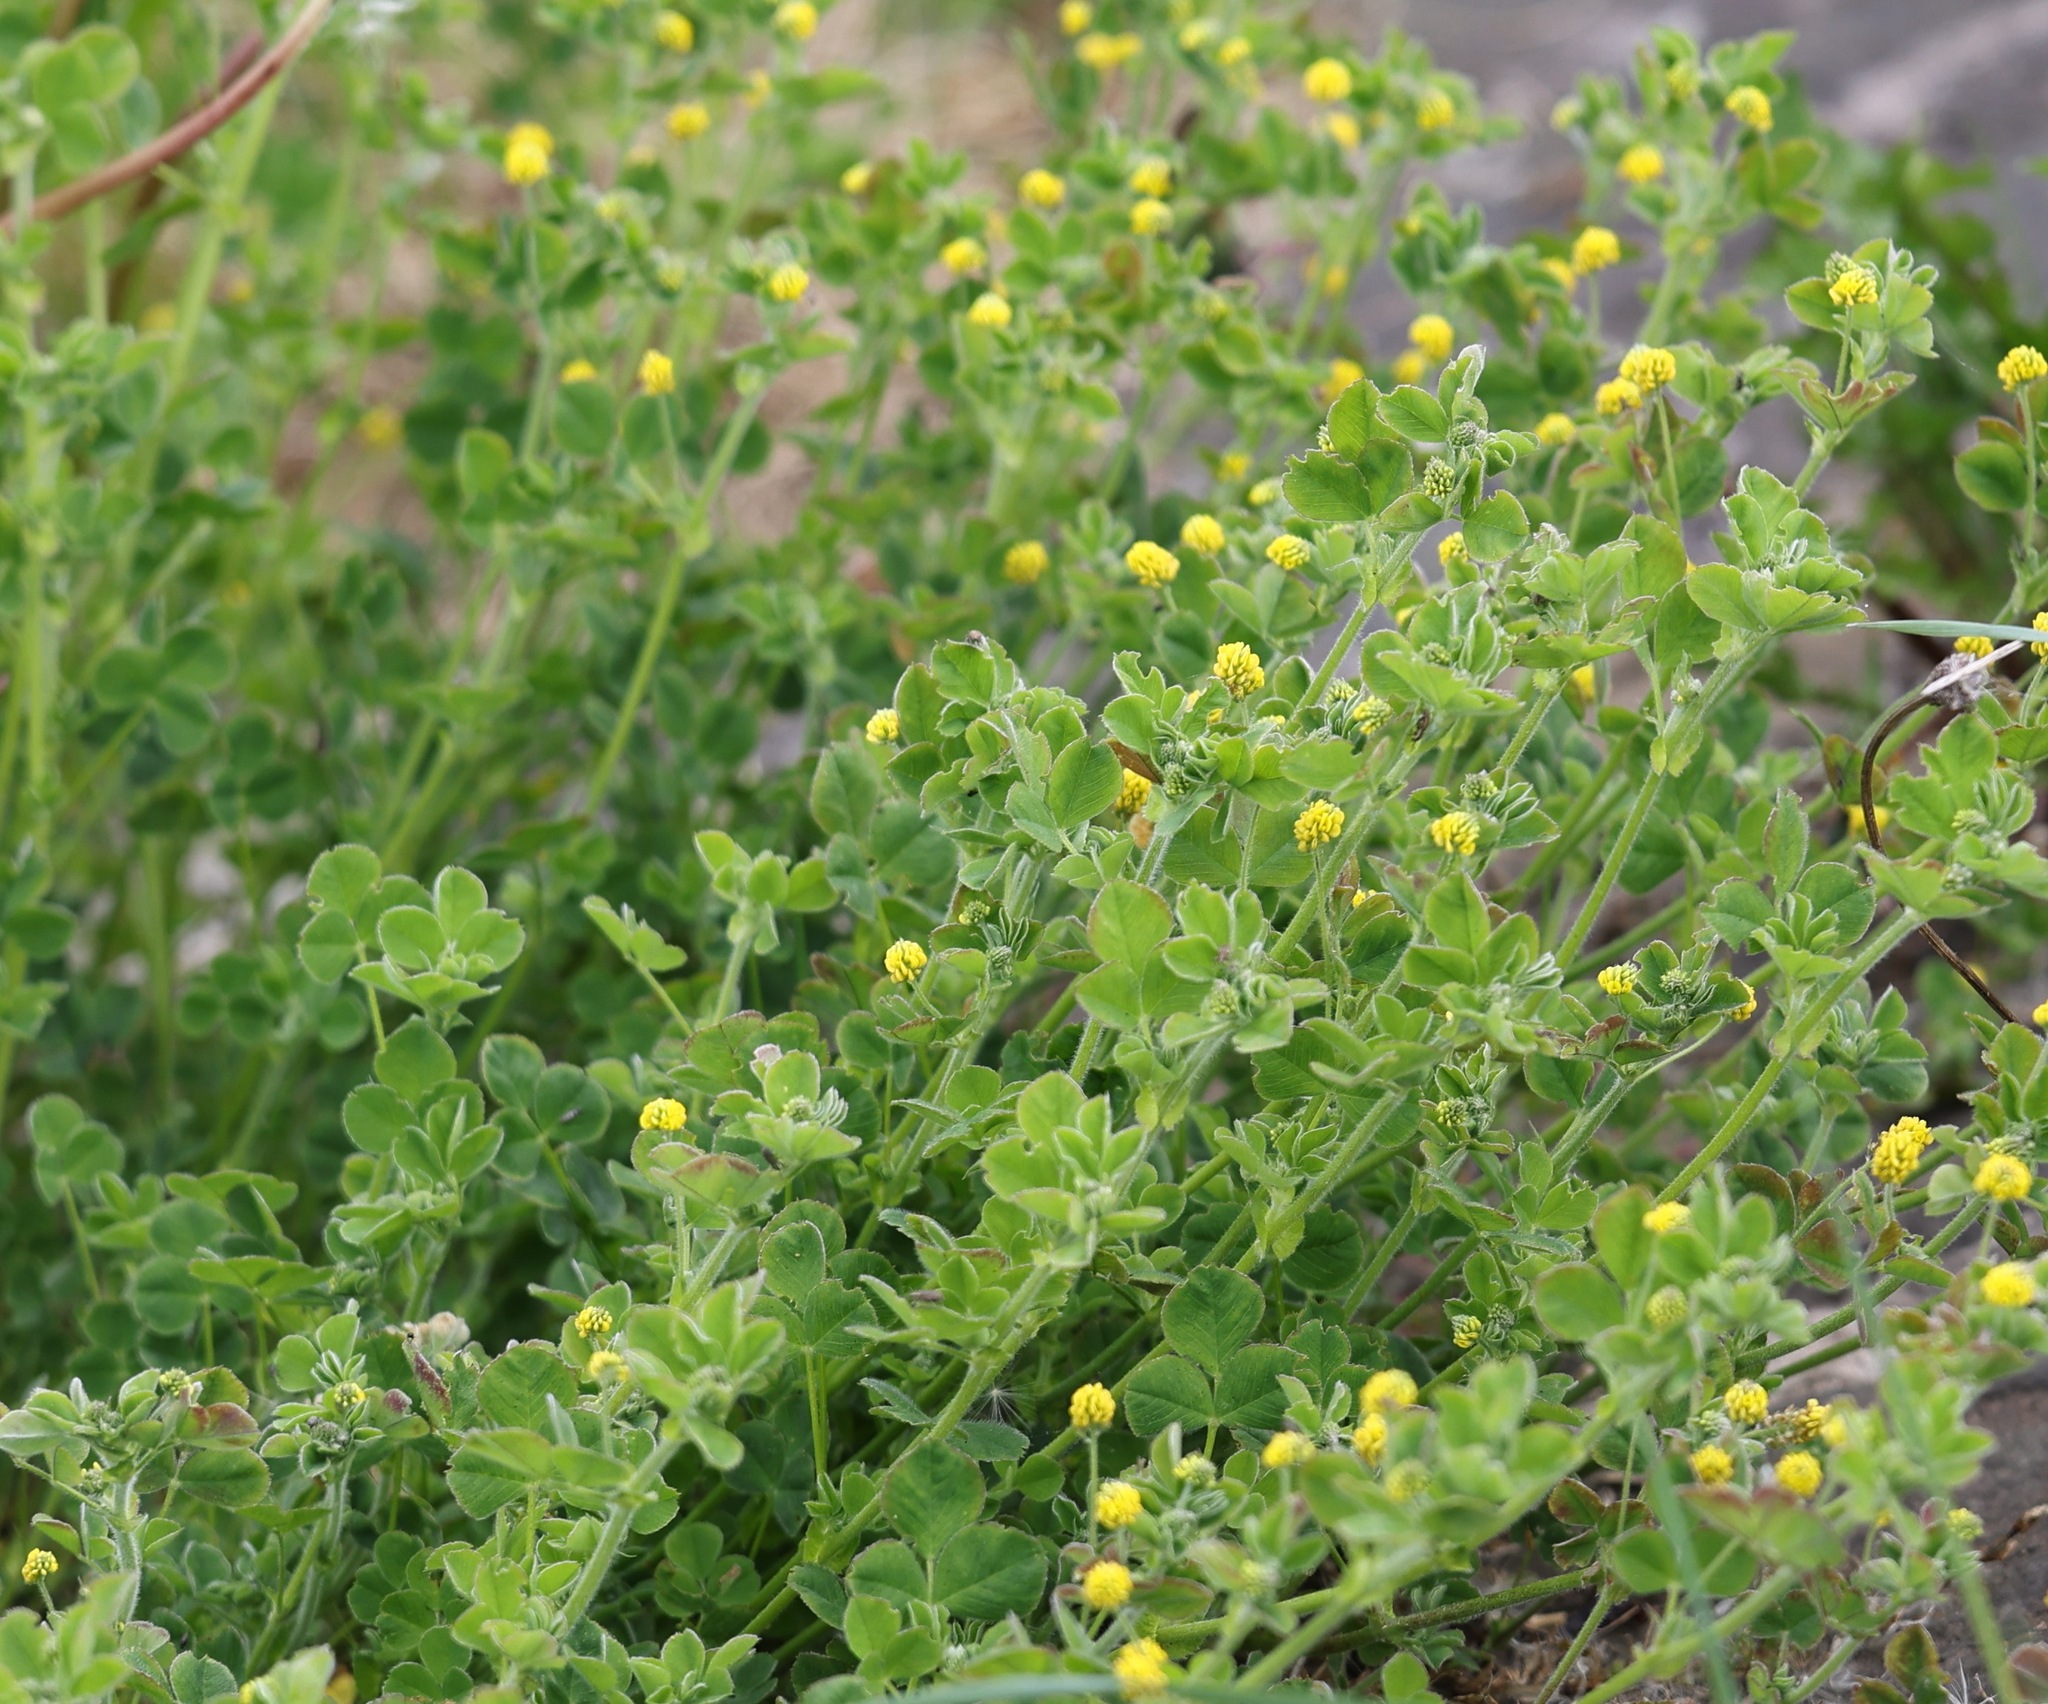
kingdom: Plantae
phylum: Tracheophyta
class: Magnoliopsida
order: Fabales
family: Fabaceae
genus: Medicago
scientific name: Medicago lupulina
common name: Black medick
